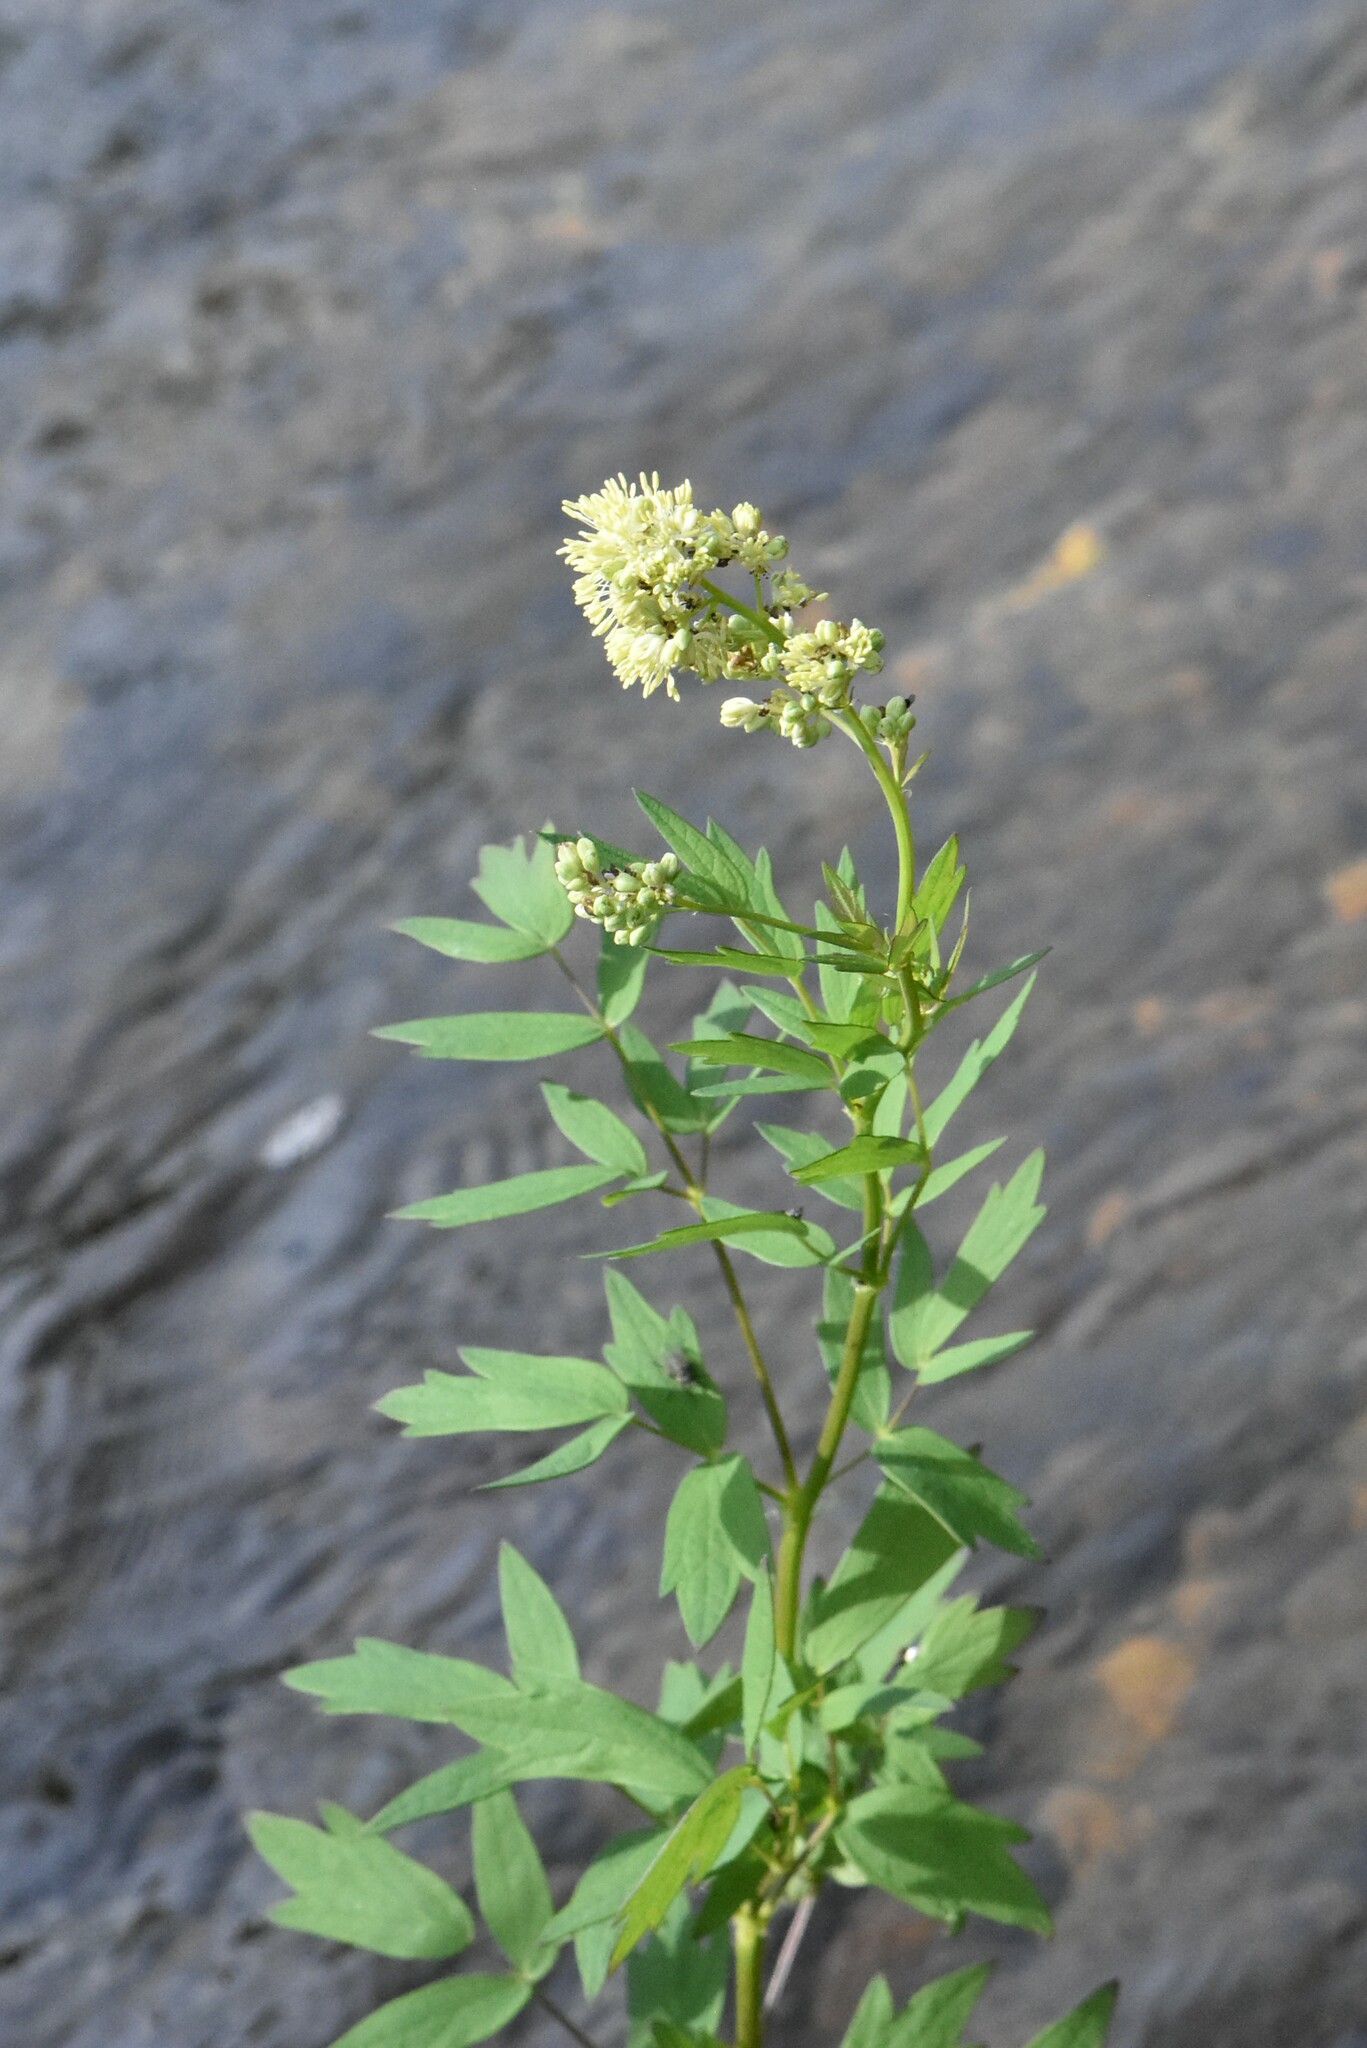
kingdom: Plantae
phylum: Tracheophyta
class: Magnoliopsida
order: Ranunculales
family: Ranunculaceae
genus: Thalictrum
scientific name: Thalictrum flavum
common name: Common meadow-rue
